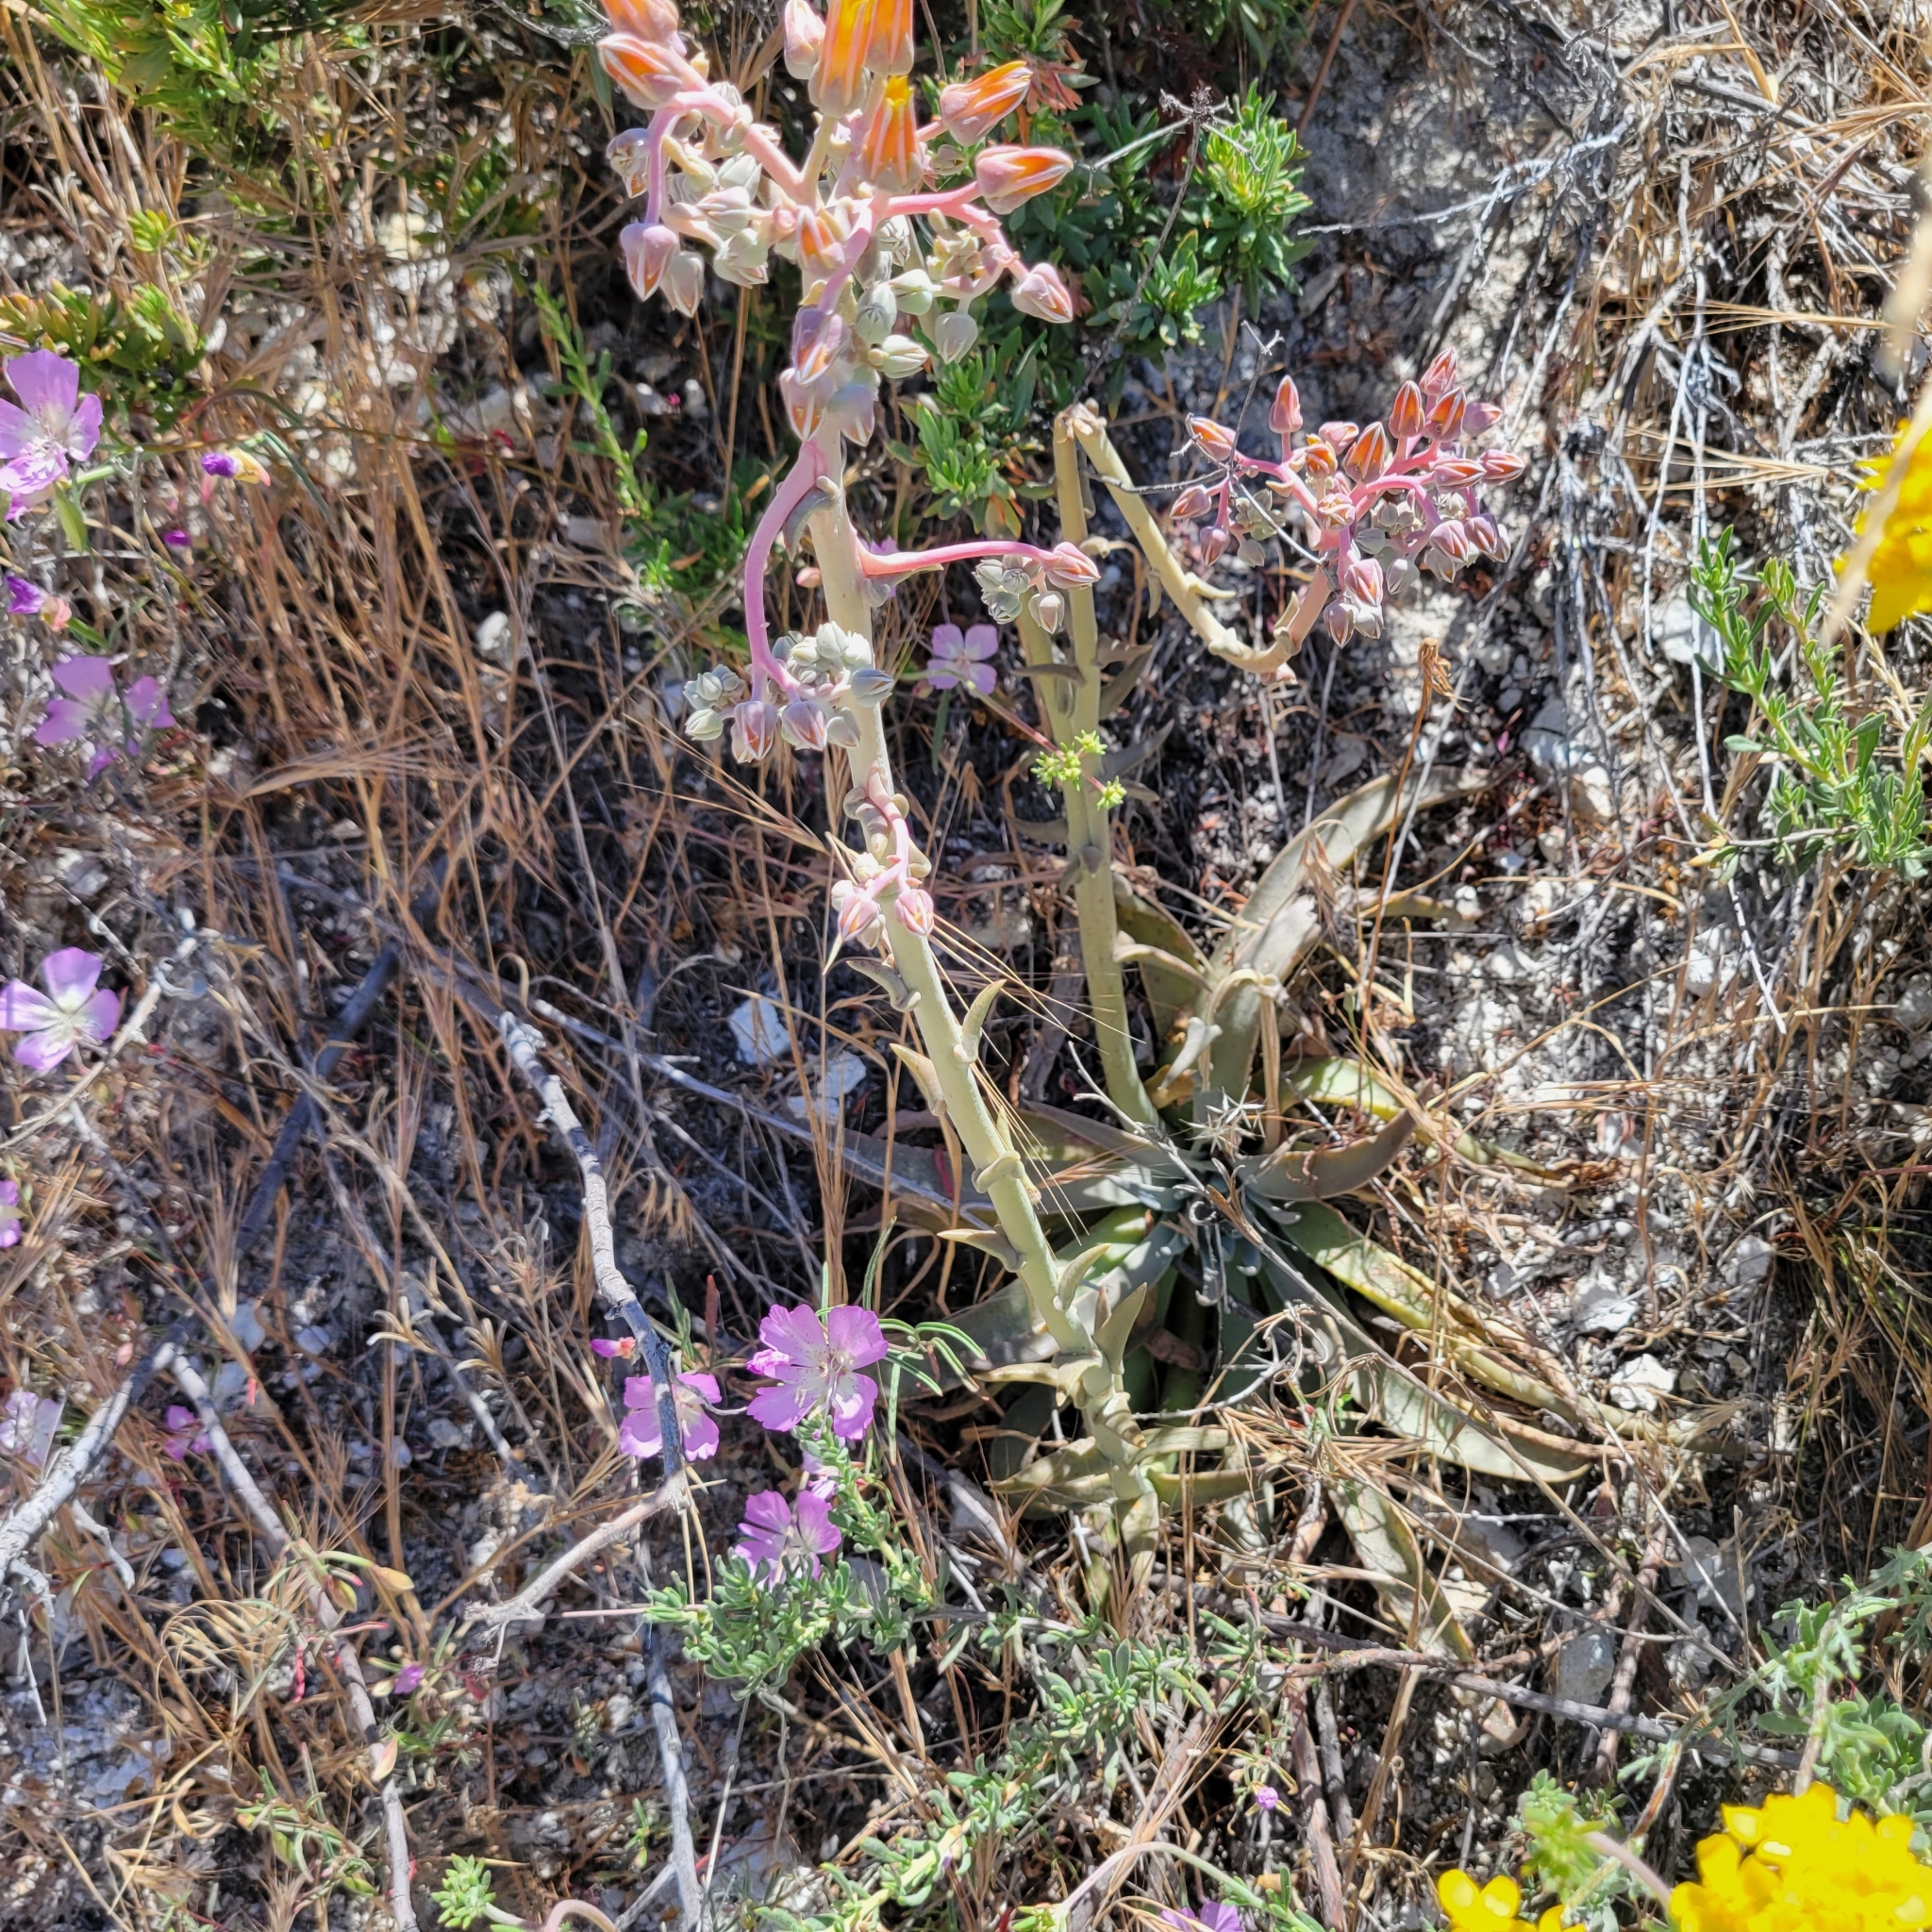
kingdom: Plantae
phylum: Tracheophyta
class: Magnoliopsida
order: Saxifragales
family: Crassulaceae
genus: Dudleya
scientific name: Dudleya lanceolata
